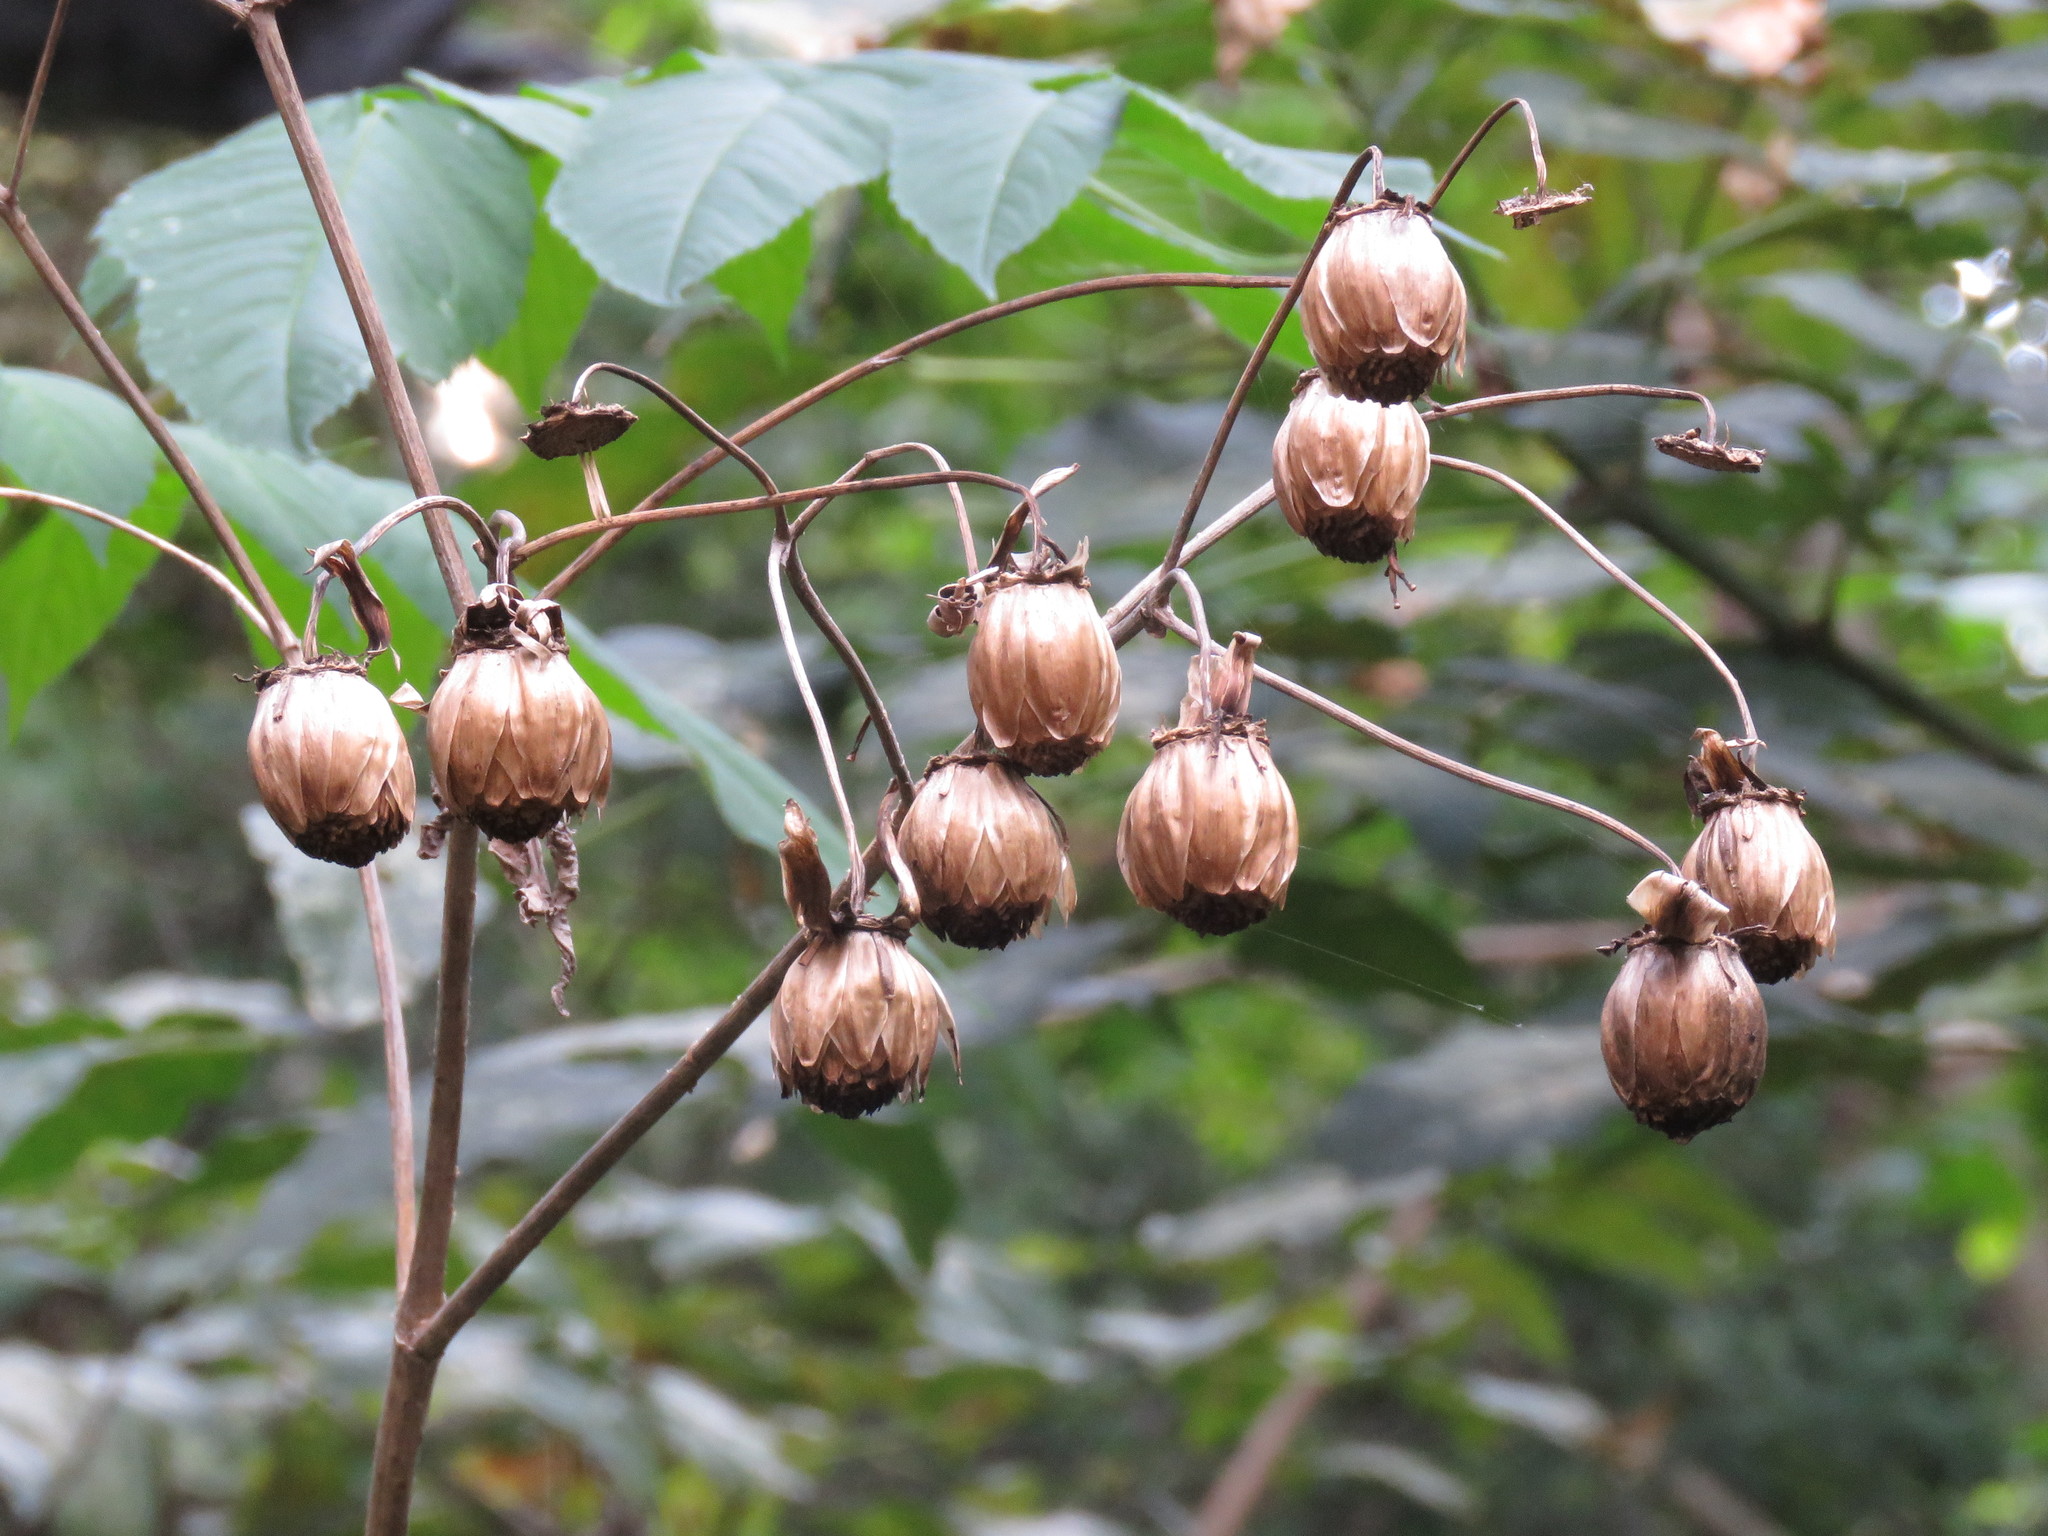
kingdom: Plantae
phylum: Tracheophyta
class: Magnoliopsida
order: Asterales
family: Asteraceae
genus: Dahlia
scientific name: Dahlia imperialis
